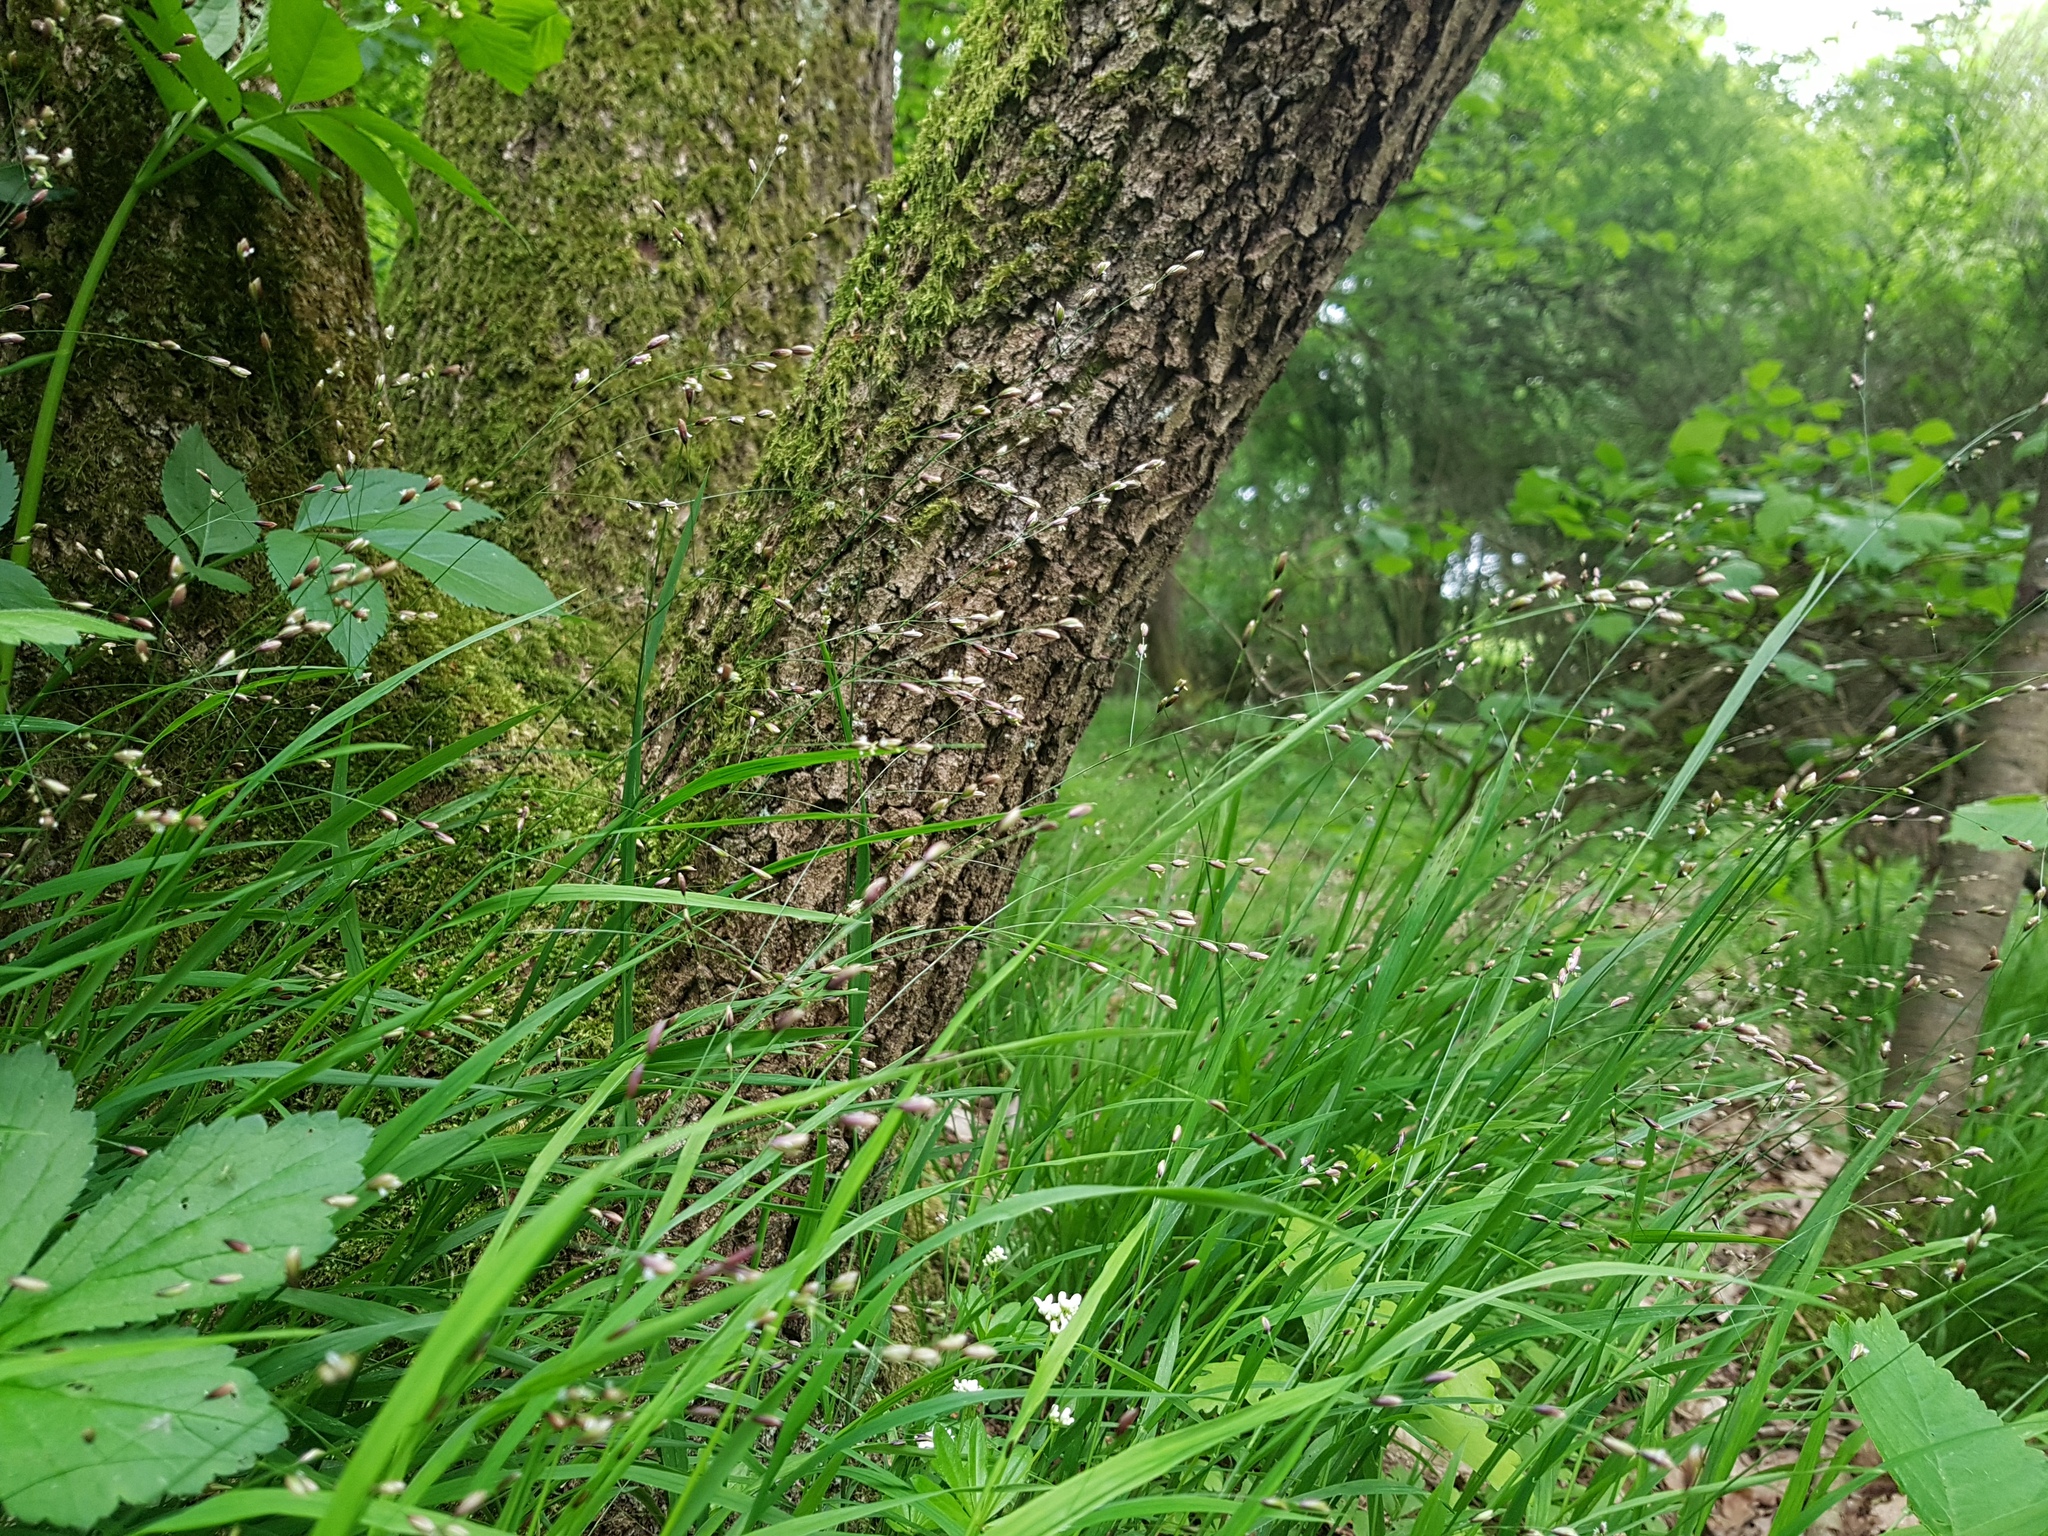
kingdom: Plantae
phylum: Tracheophyta
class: Liliopsida
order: Poales
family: Poaceae
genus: Melica
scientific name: Melica uniflora
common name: Wood melick
